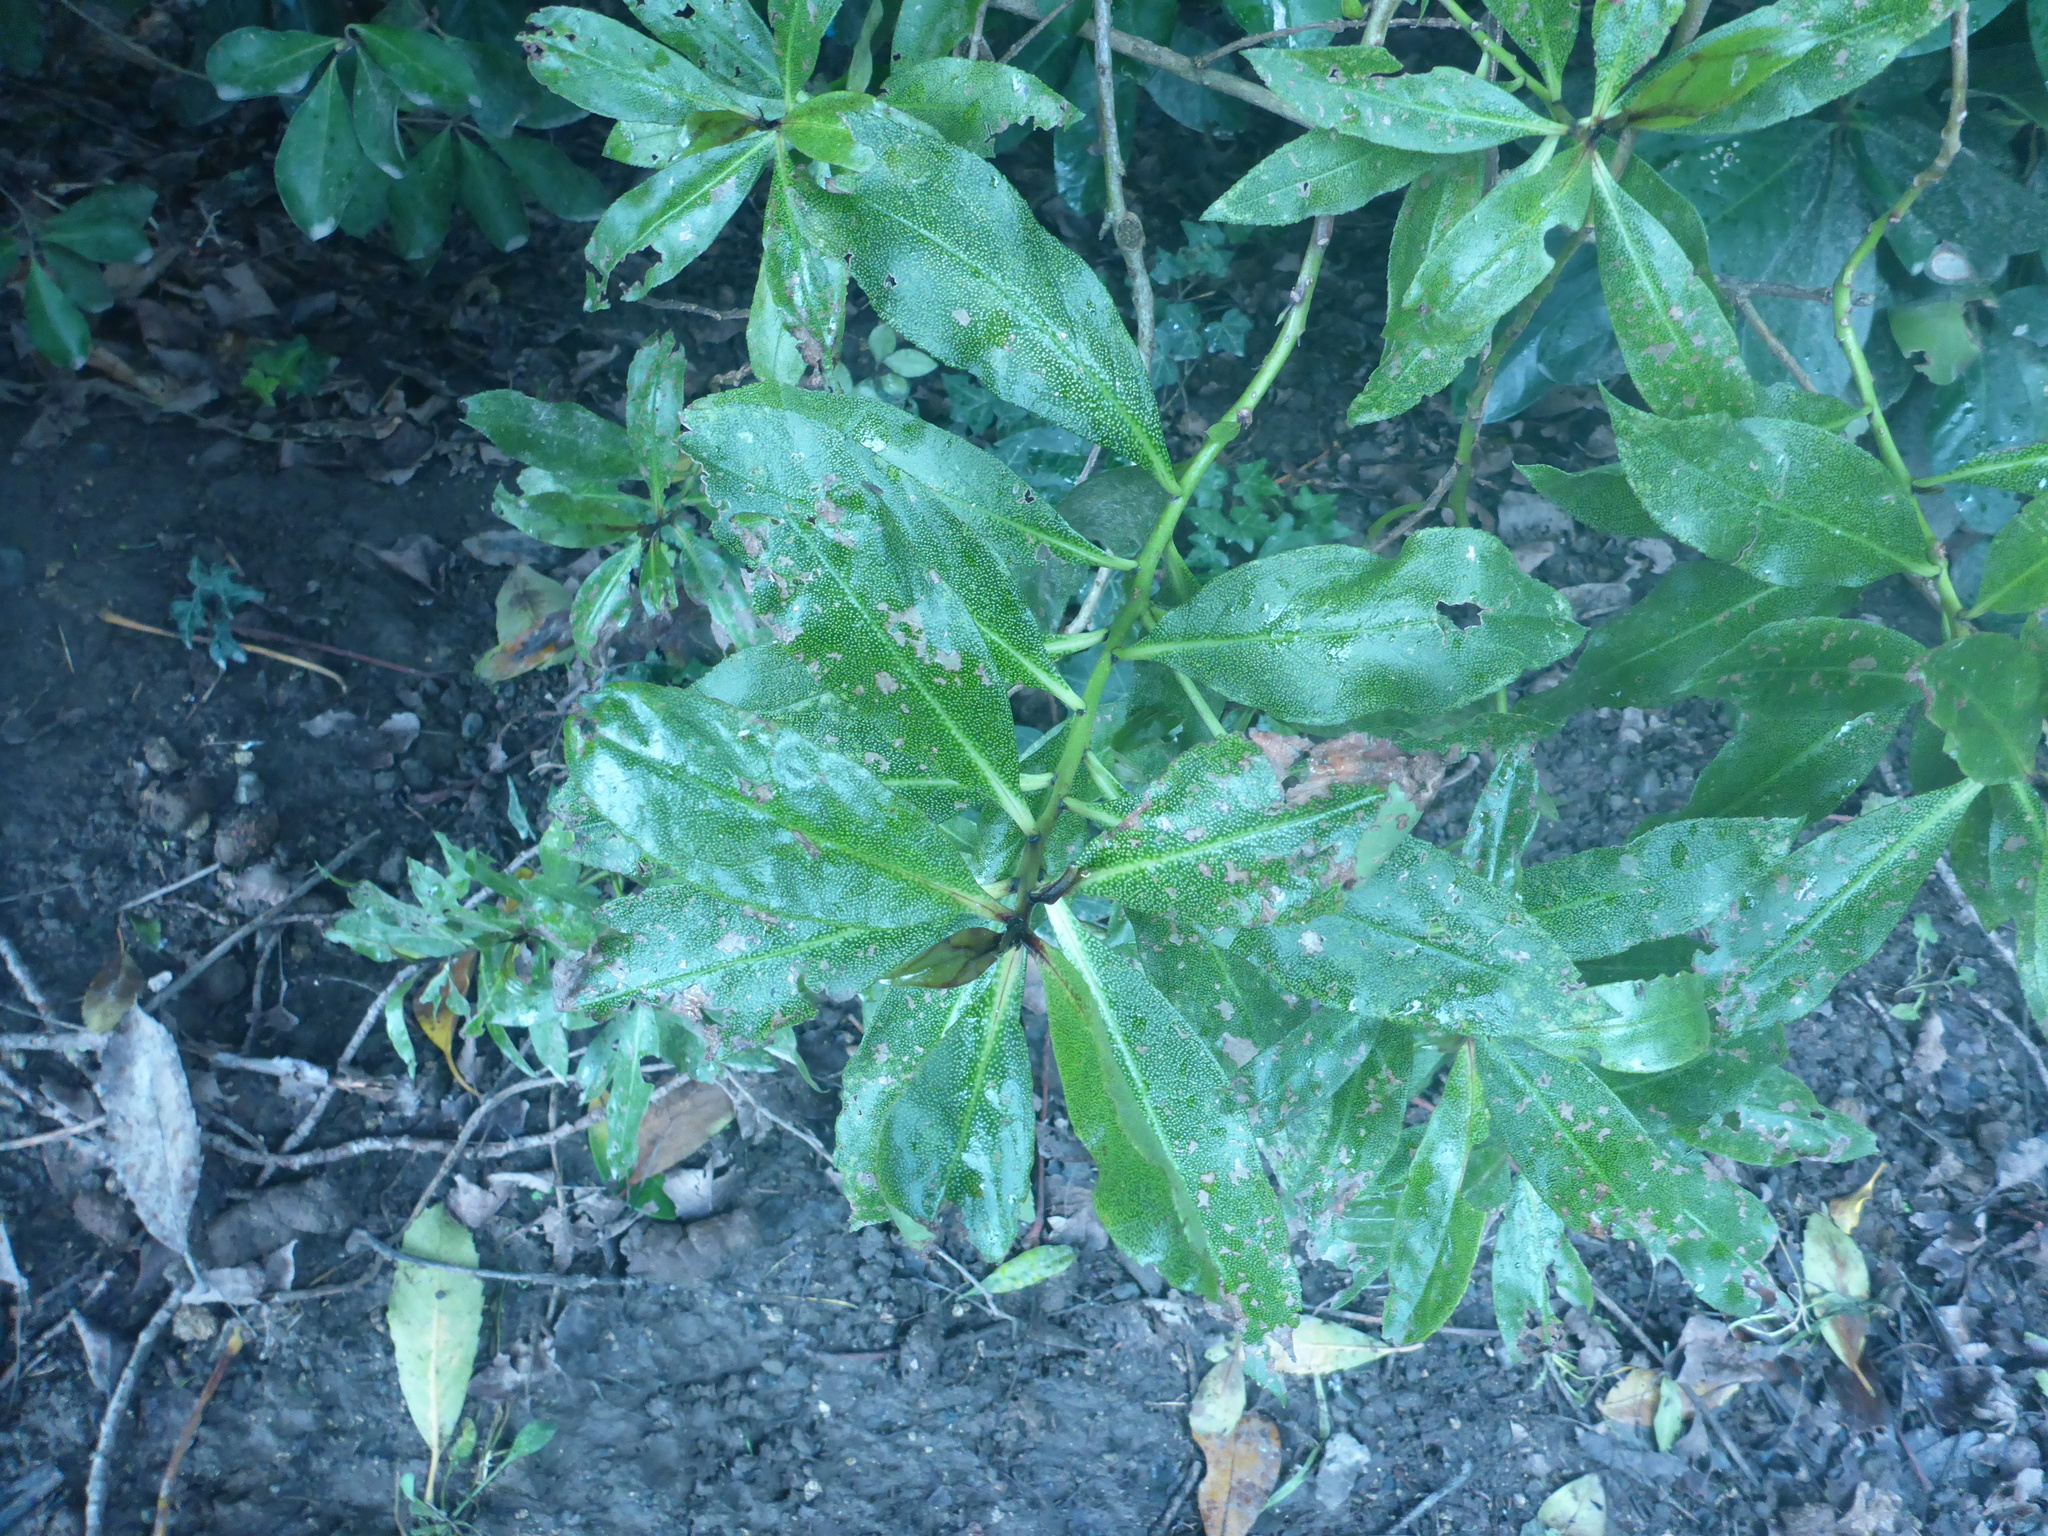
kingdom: Plantae
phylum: Tracheophyta
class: Magnoliopsida
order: Lamiales
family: Scrophulariaceae
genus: Myoporum
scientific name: Myoporum laetum
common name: Ngaio tree
